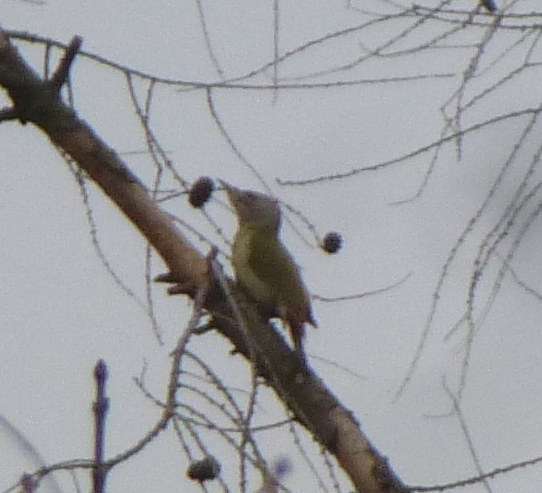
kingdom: Animalia
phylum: Chordata
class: Aves
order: Piciformes
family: Picidae
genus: Picus
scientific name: Picus canus
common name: Grey-headed woodpecker
